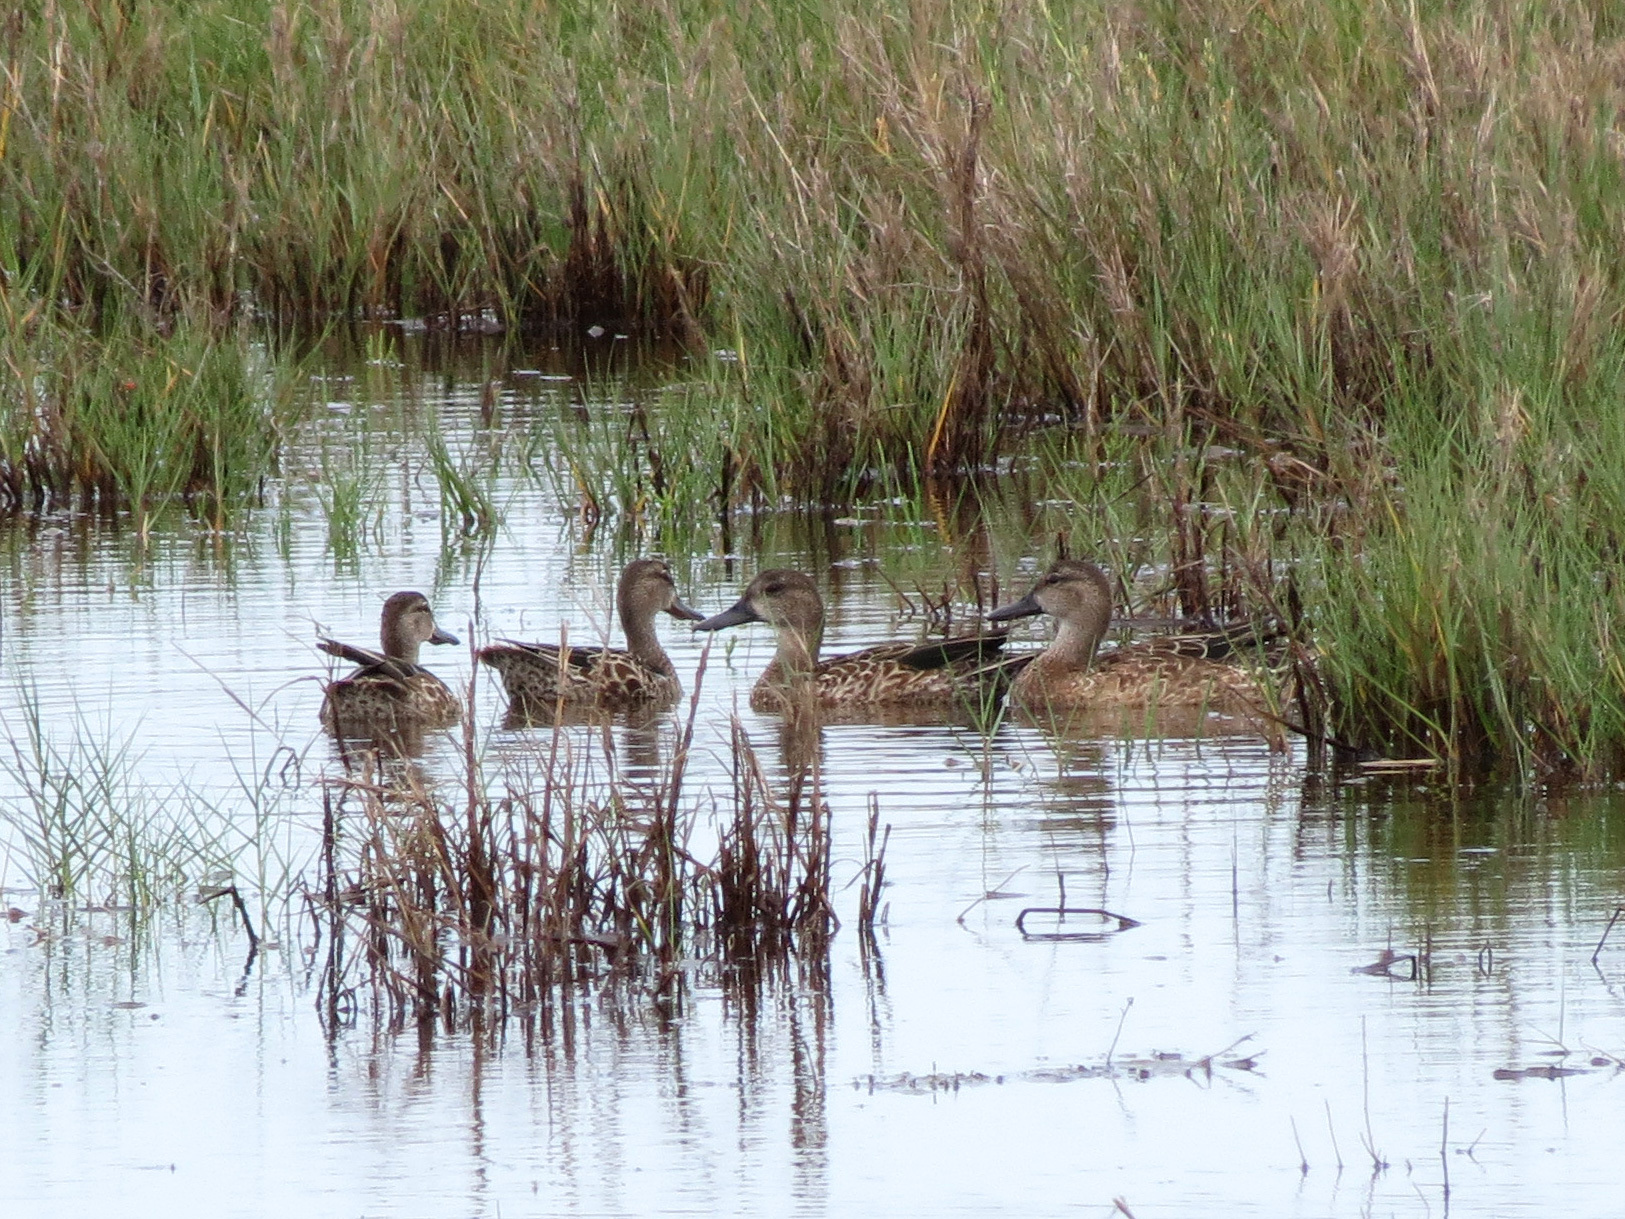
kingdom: Animalia
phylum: Chordata
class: Aves
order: Anseriformes
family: Anatidae
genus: Spatula
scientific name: Spatula discors
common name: Blue-winged teal
